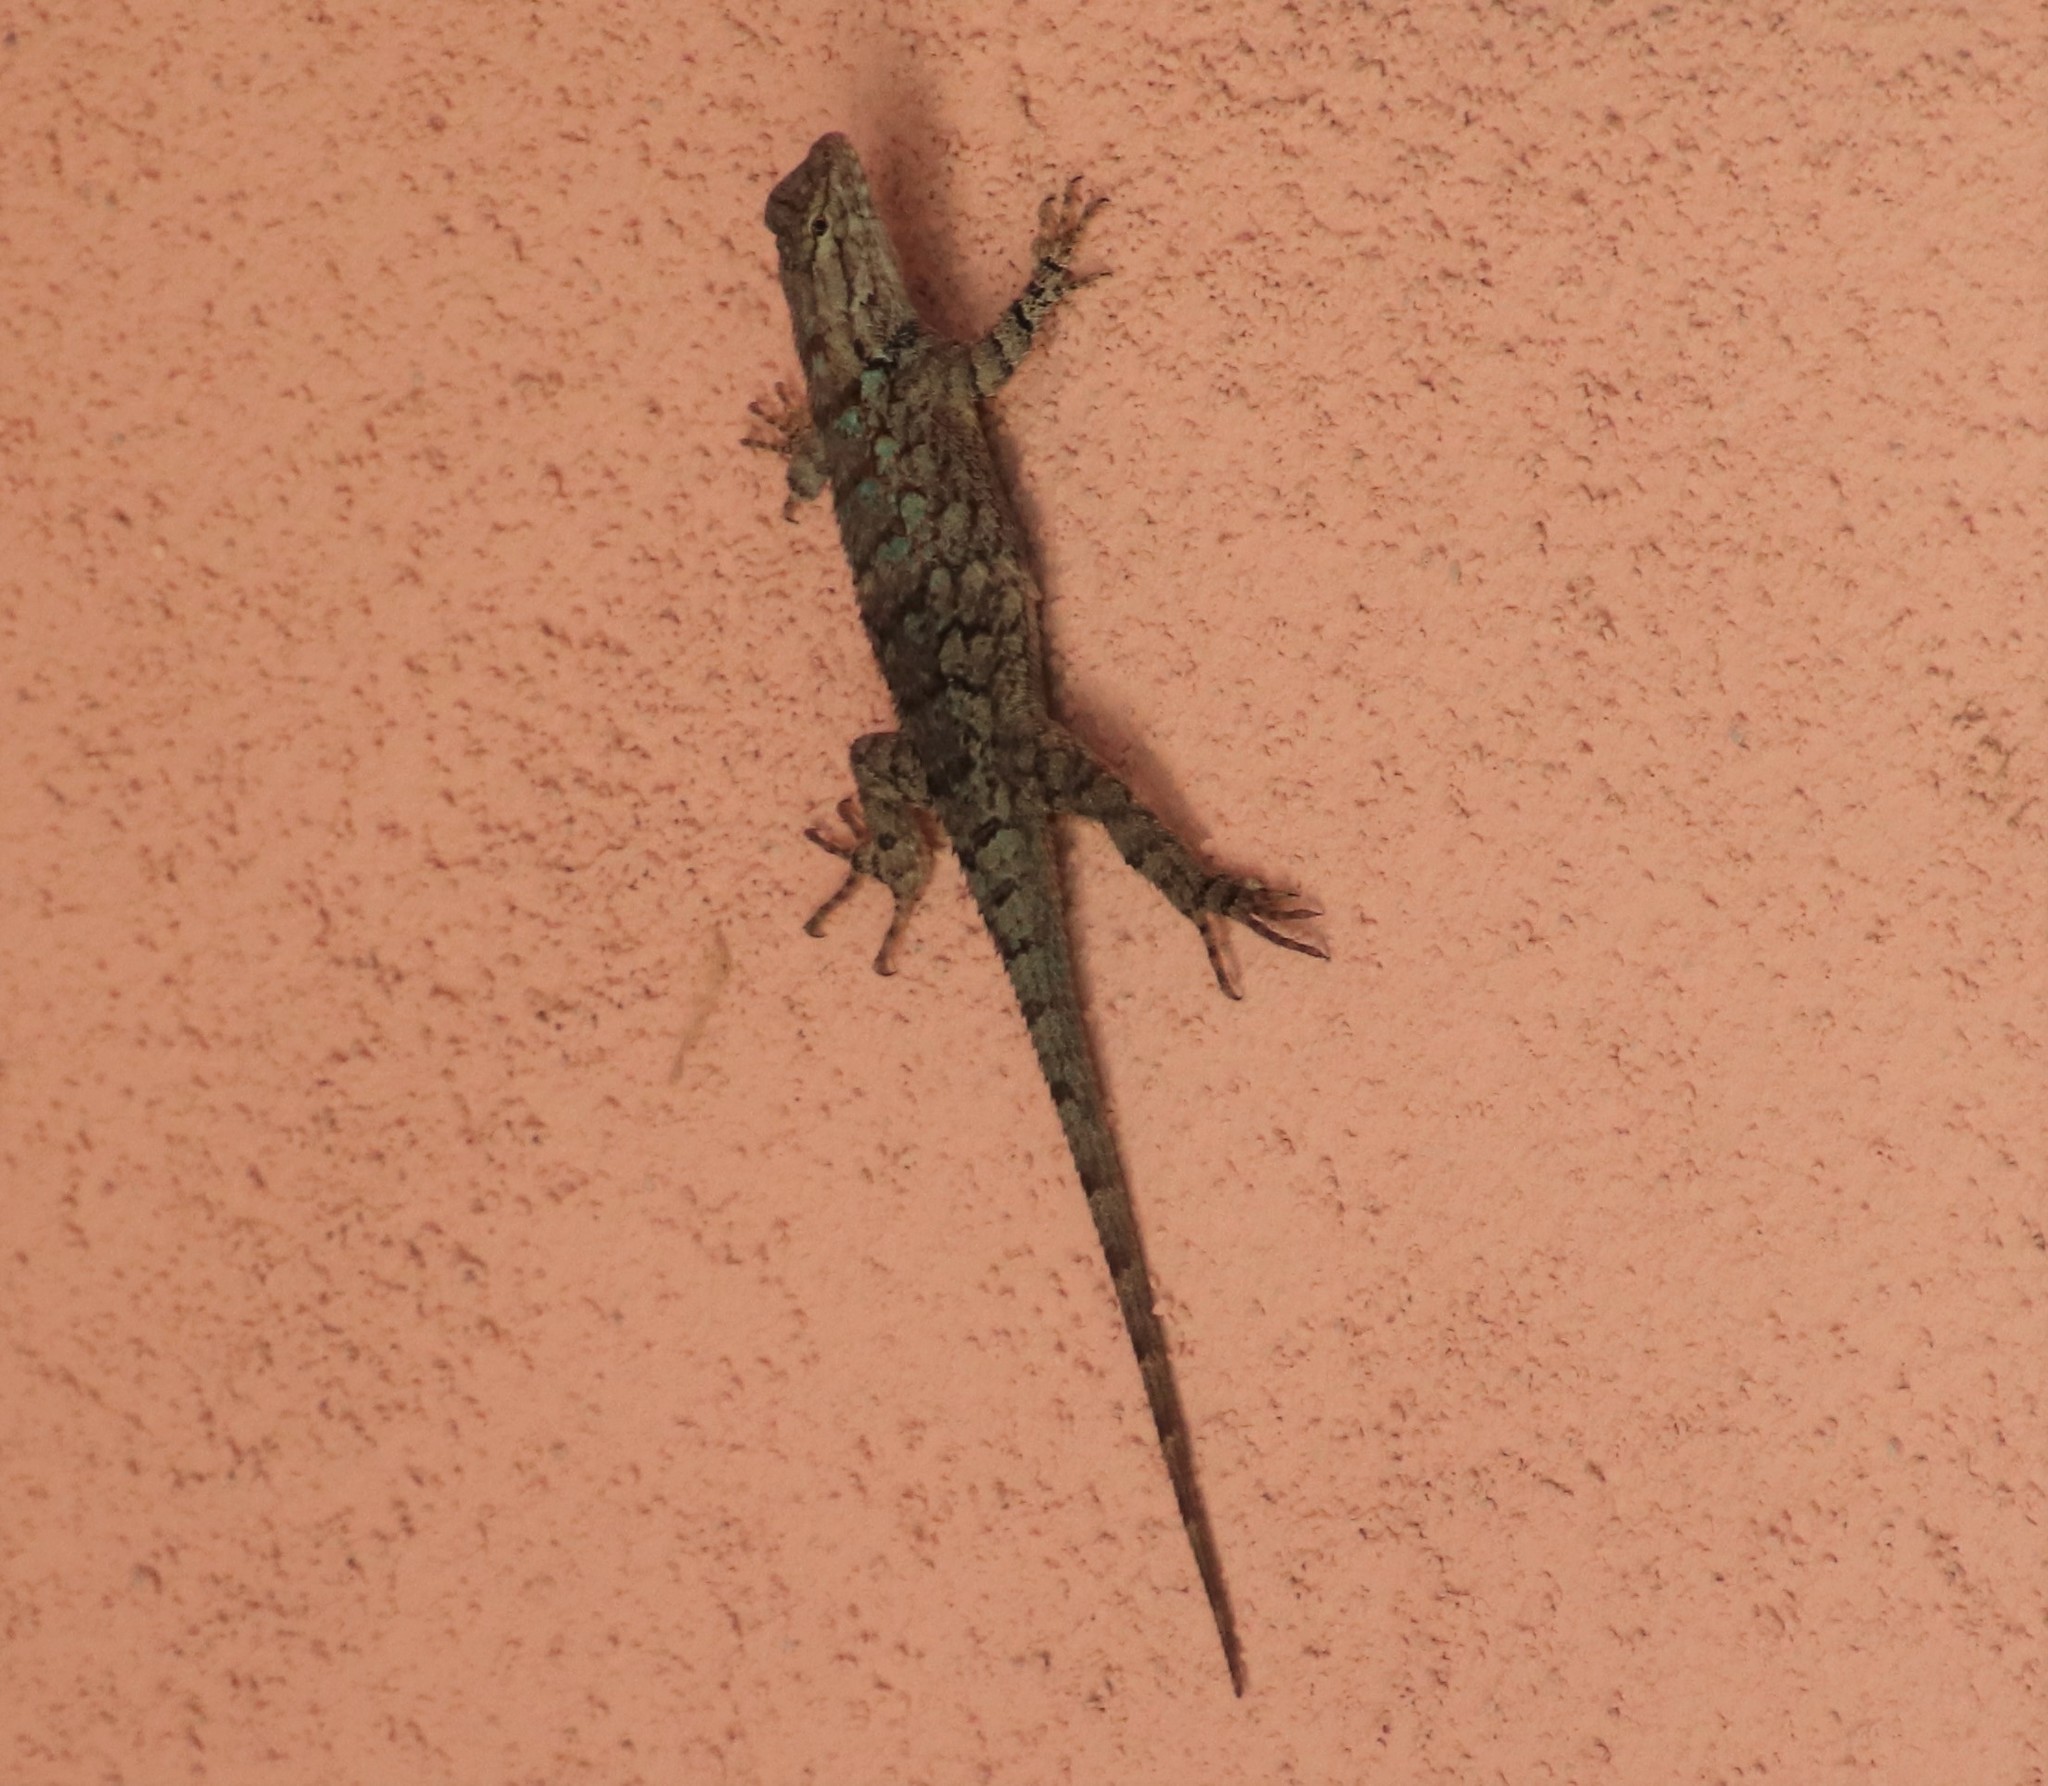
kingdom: Animalia
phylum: Chordata
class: Squamata
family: Phrynosomatidae
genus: Sceloporus
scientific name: Sceloporus clarkii
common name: Clark's spiny lizard
